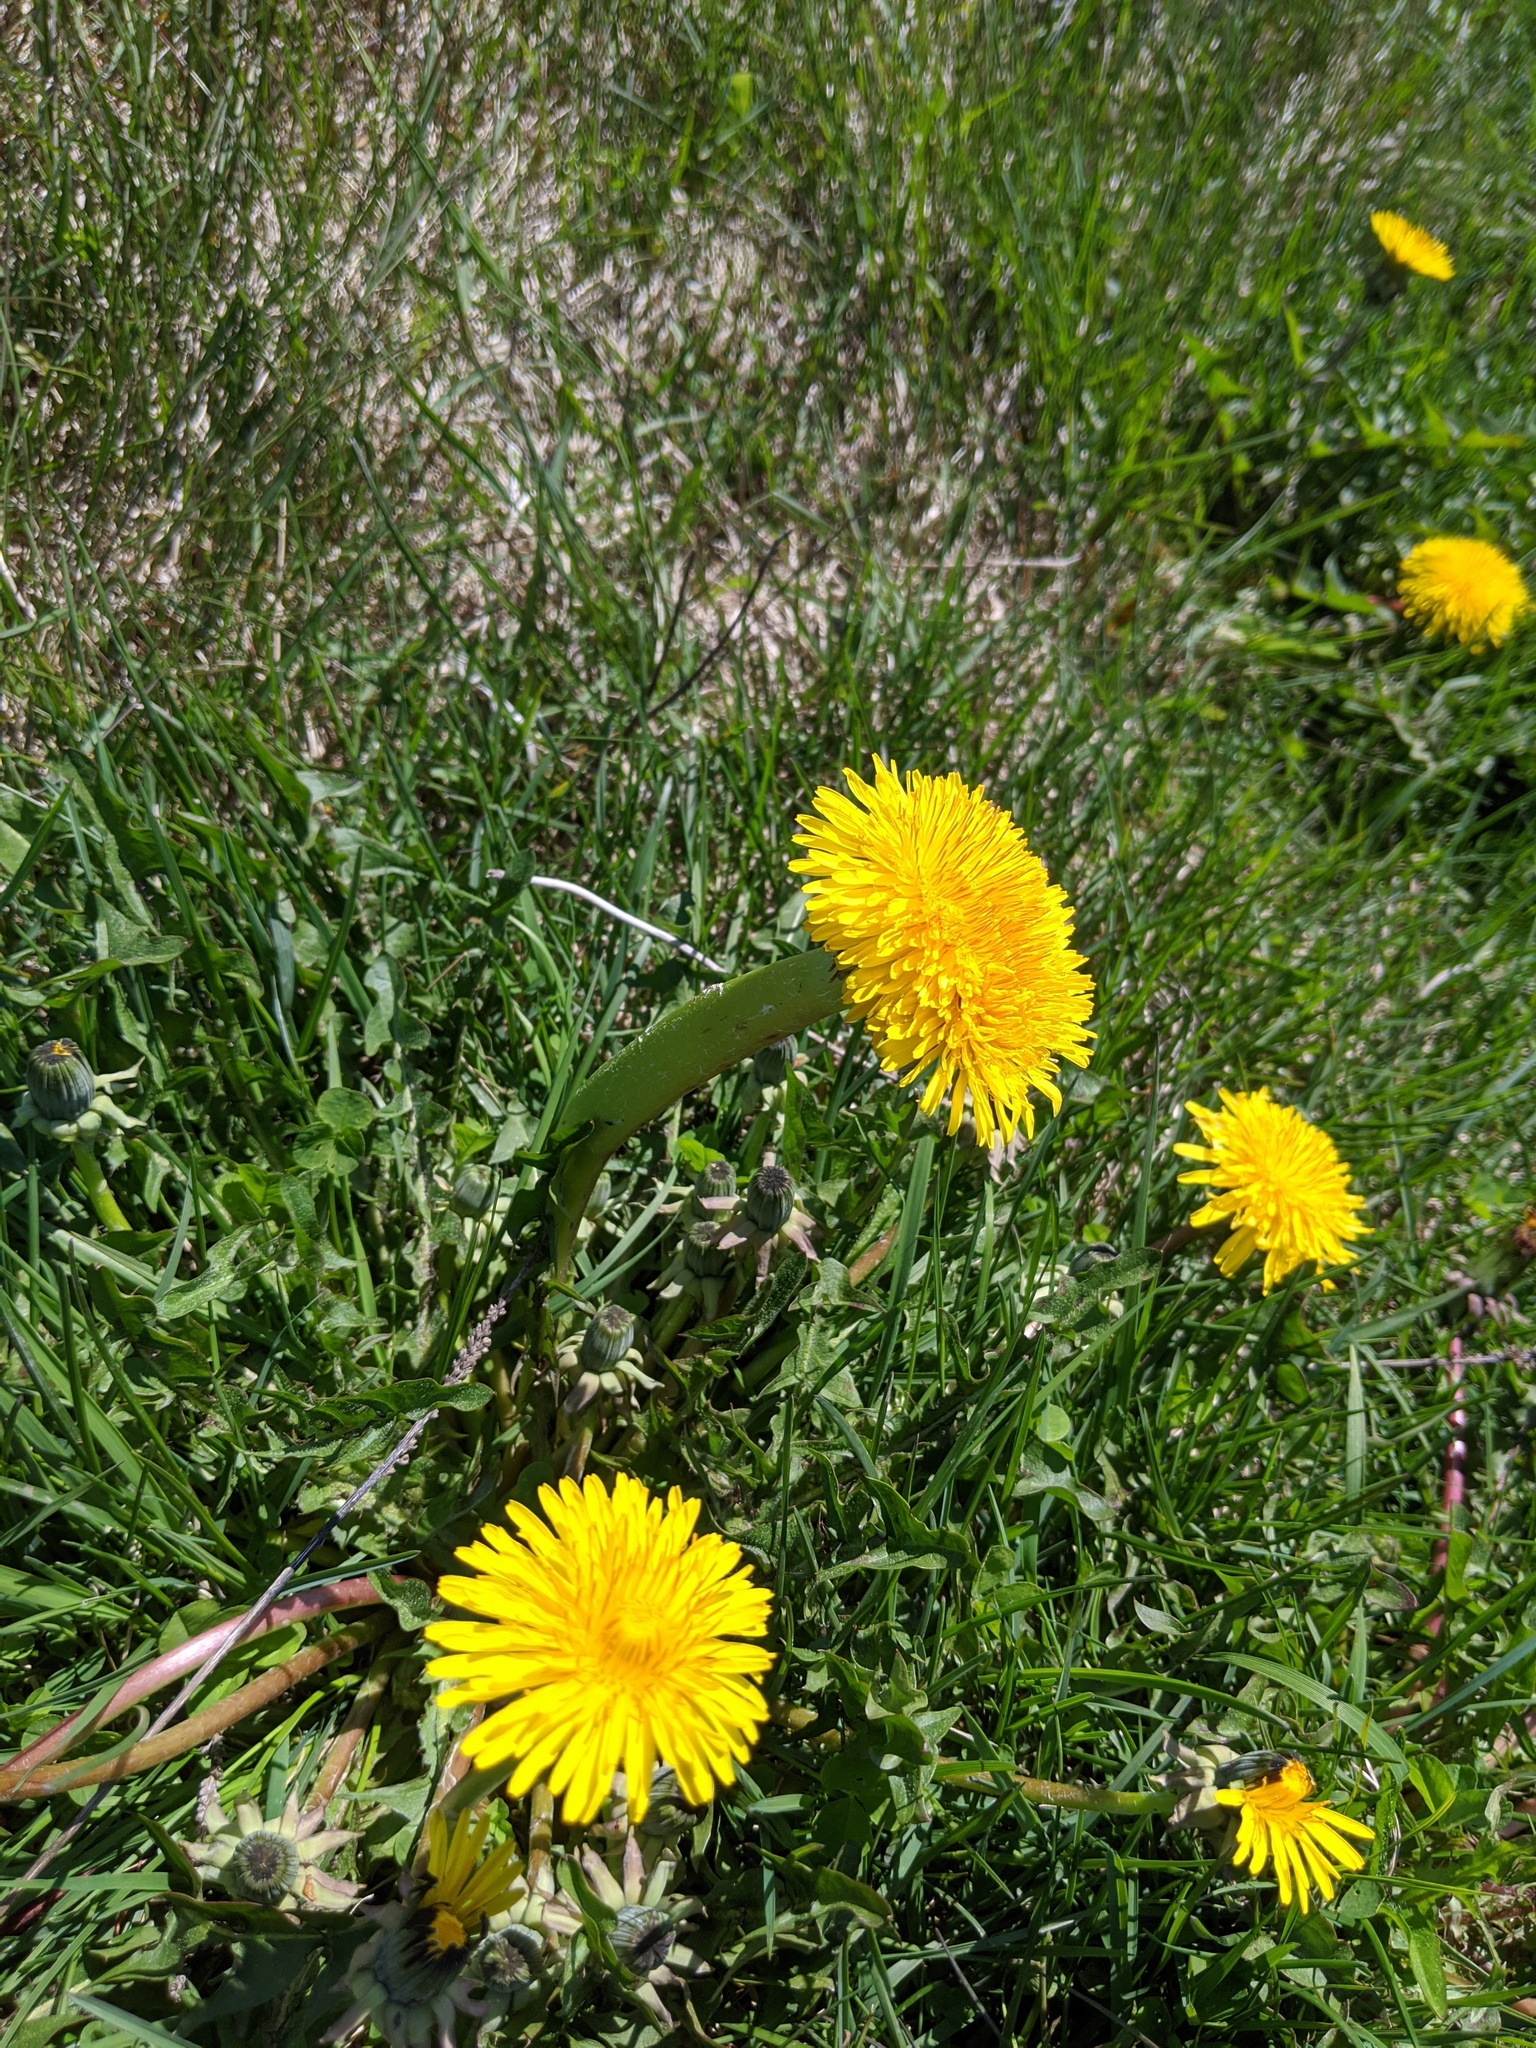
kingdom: Plantae
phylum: Tracheophyta
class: Magnoliopsida
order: Asterales
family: Asteraceae
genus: Taraxacum
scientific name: Taraxacum officinale
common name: Common dandelion
